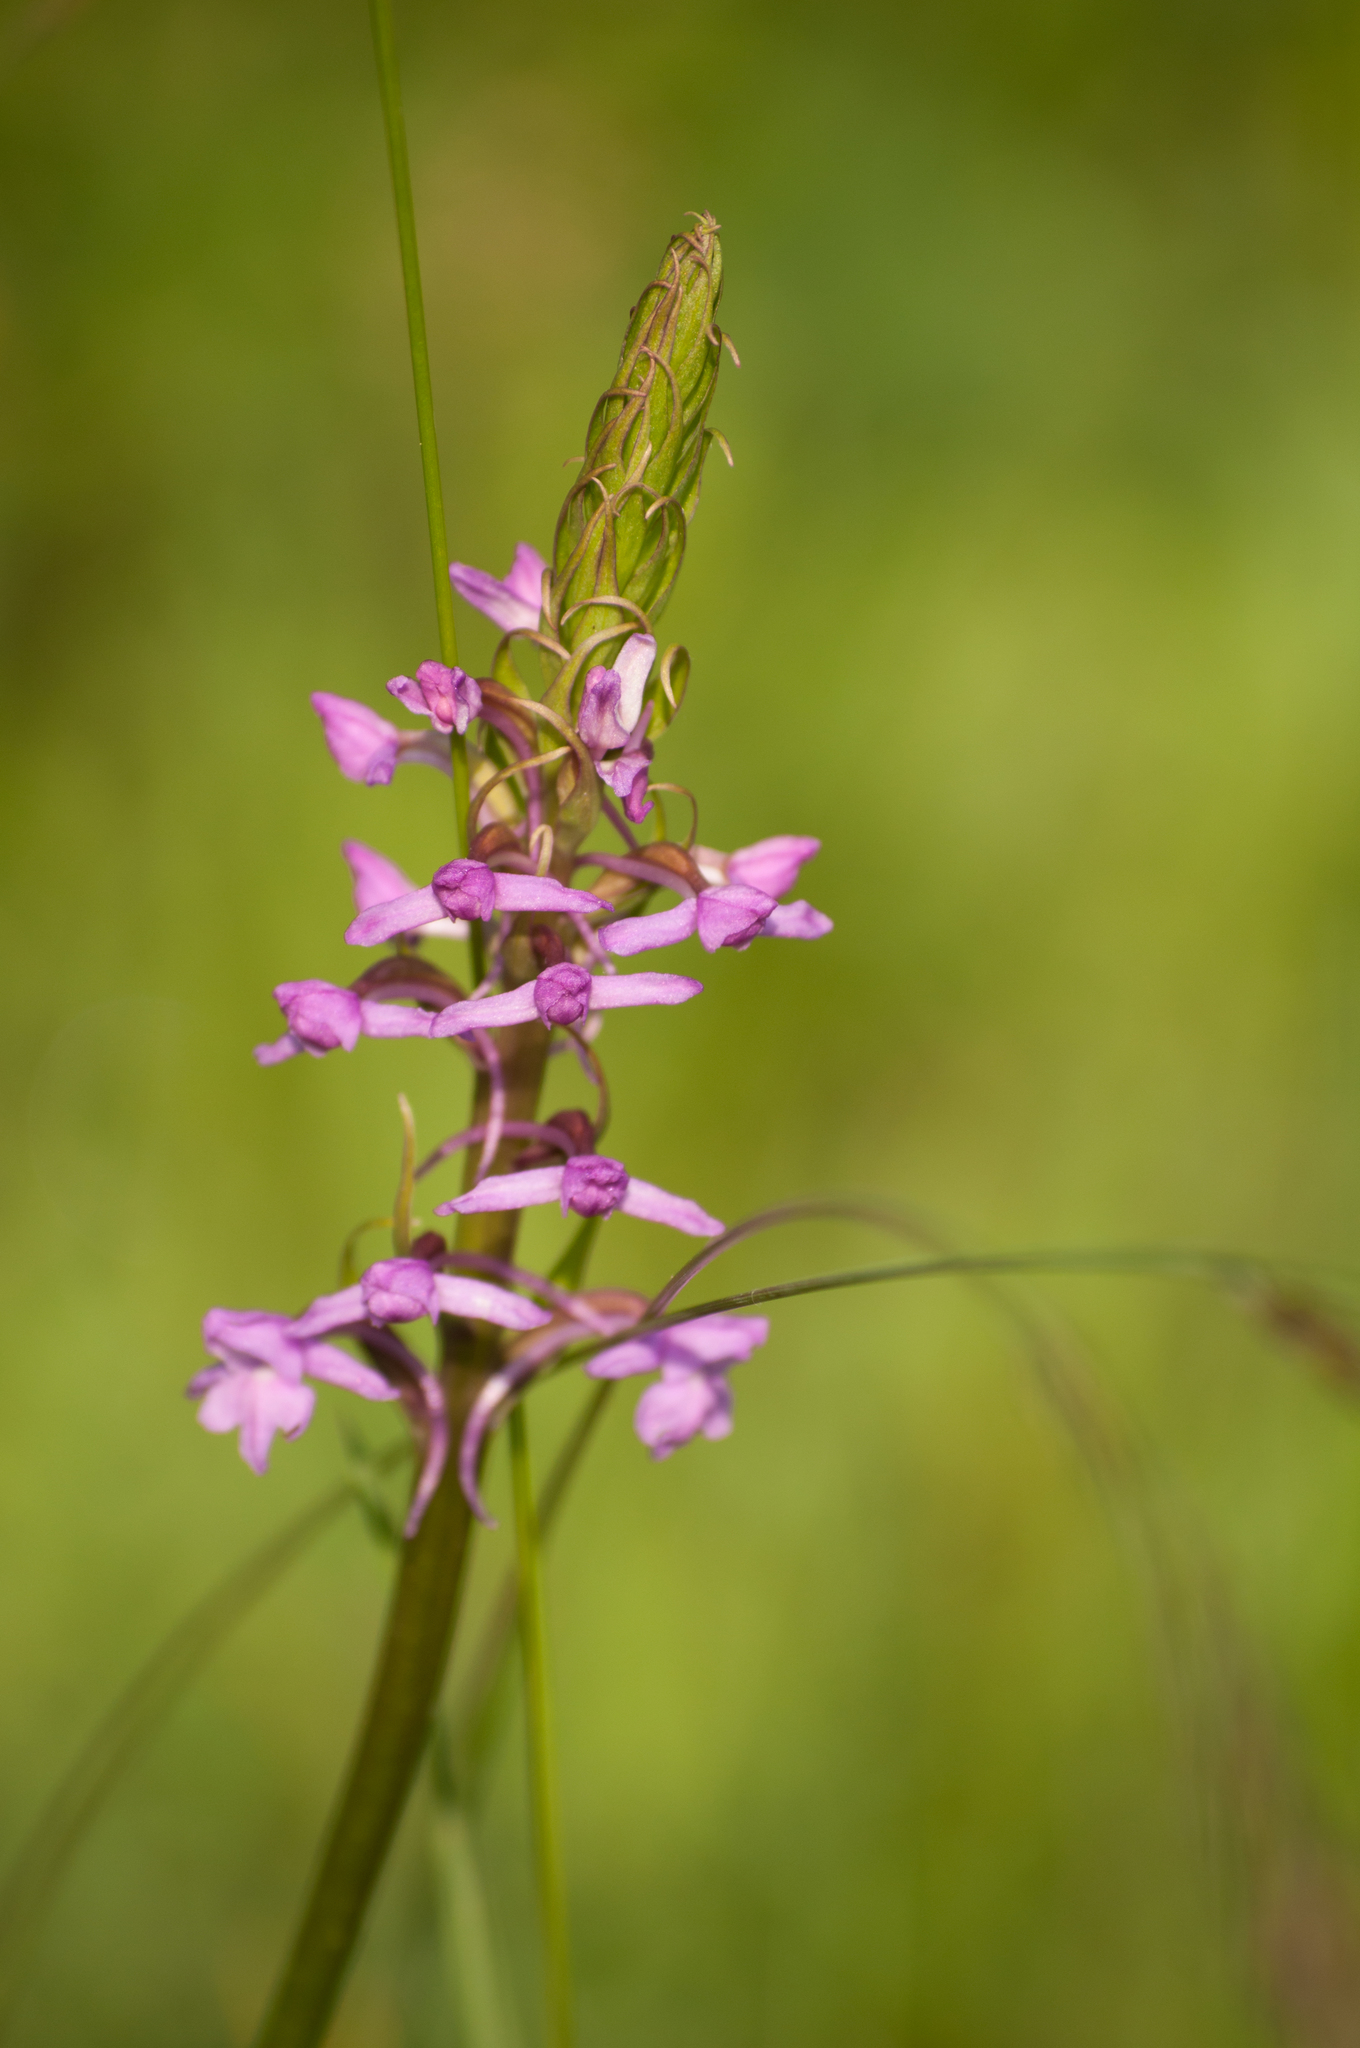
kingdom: Plantae
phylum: Tracheophyta
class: Liliopsida
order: Asparagales
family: Orchidaceae
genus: Gymnadenia
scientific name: Gymnadenia conopsea
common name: Fragrant orchid
